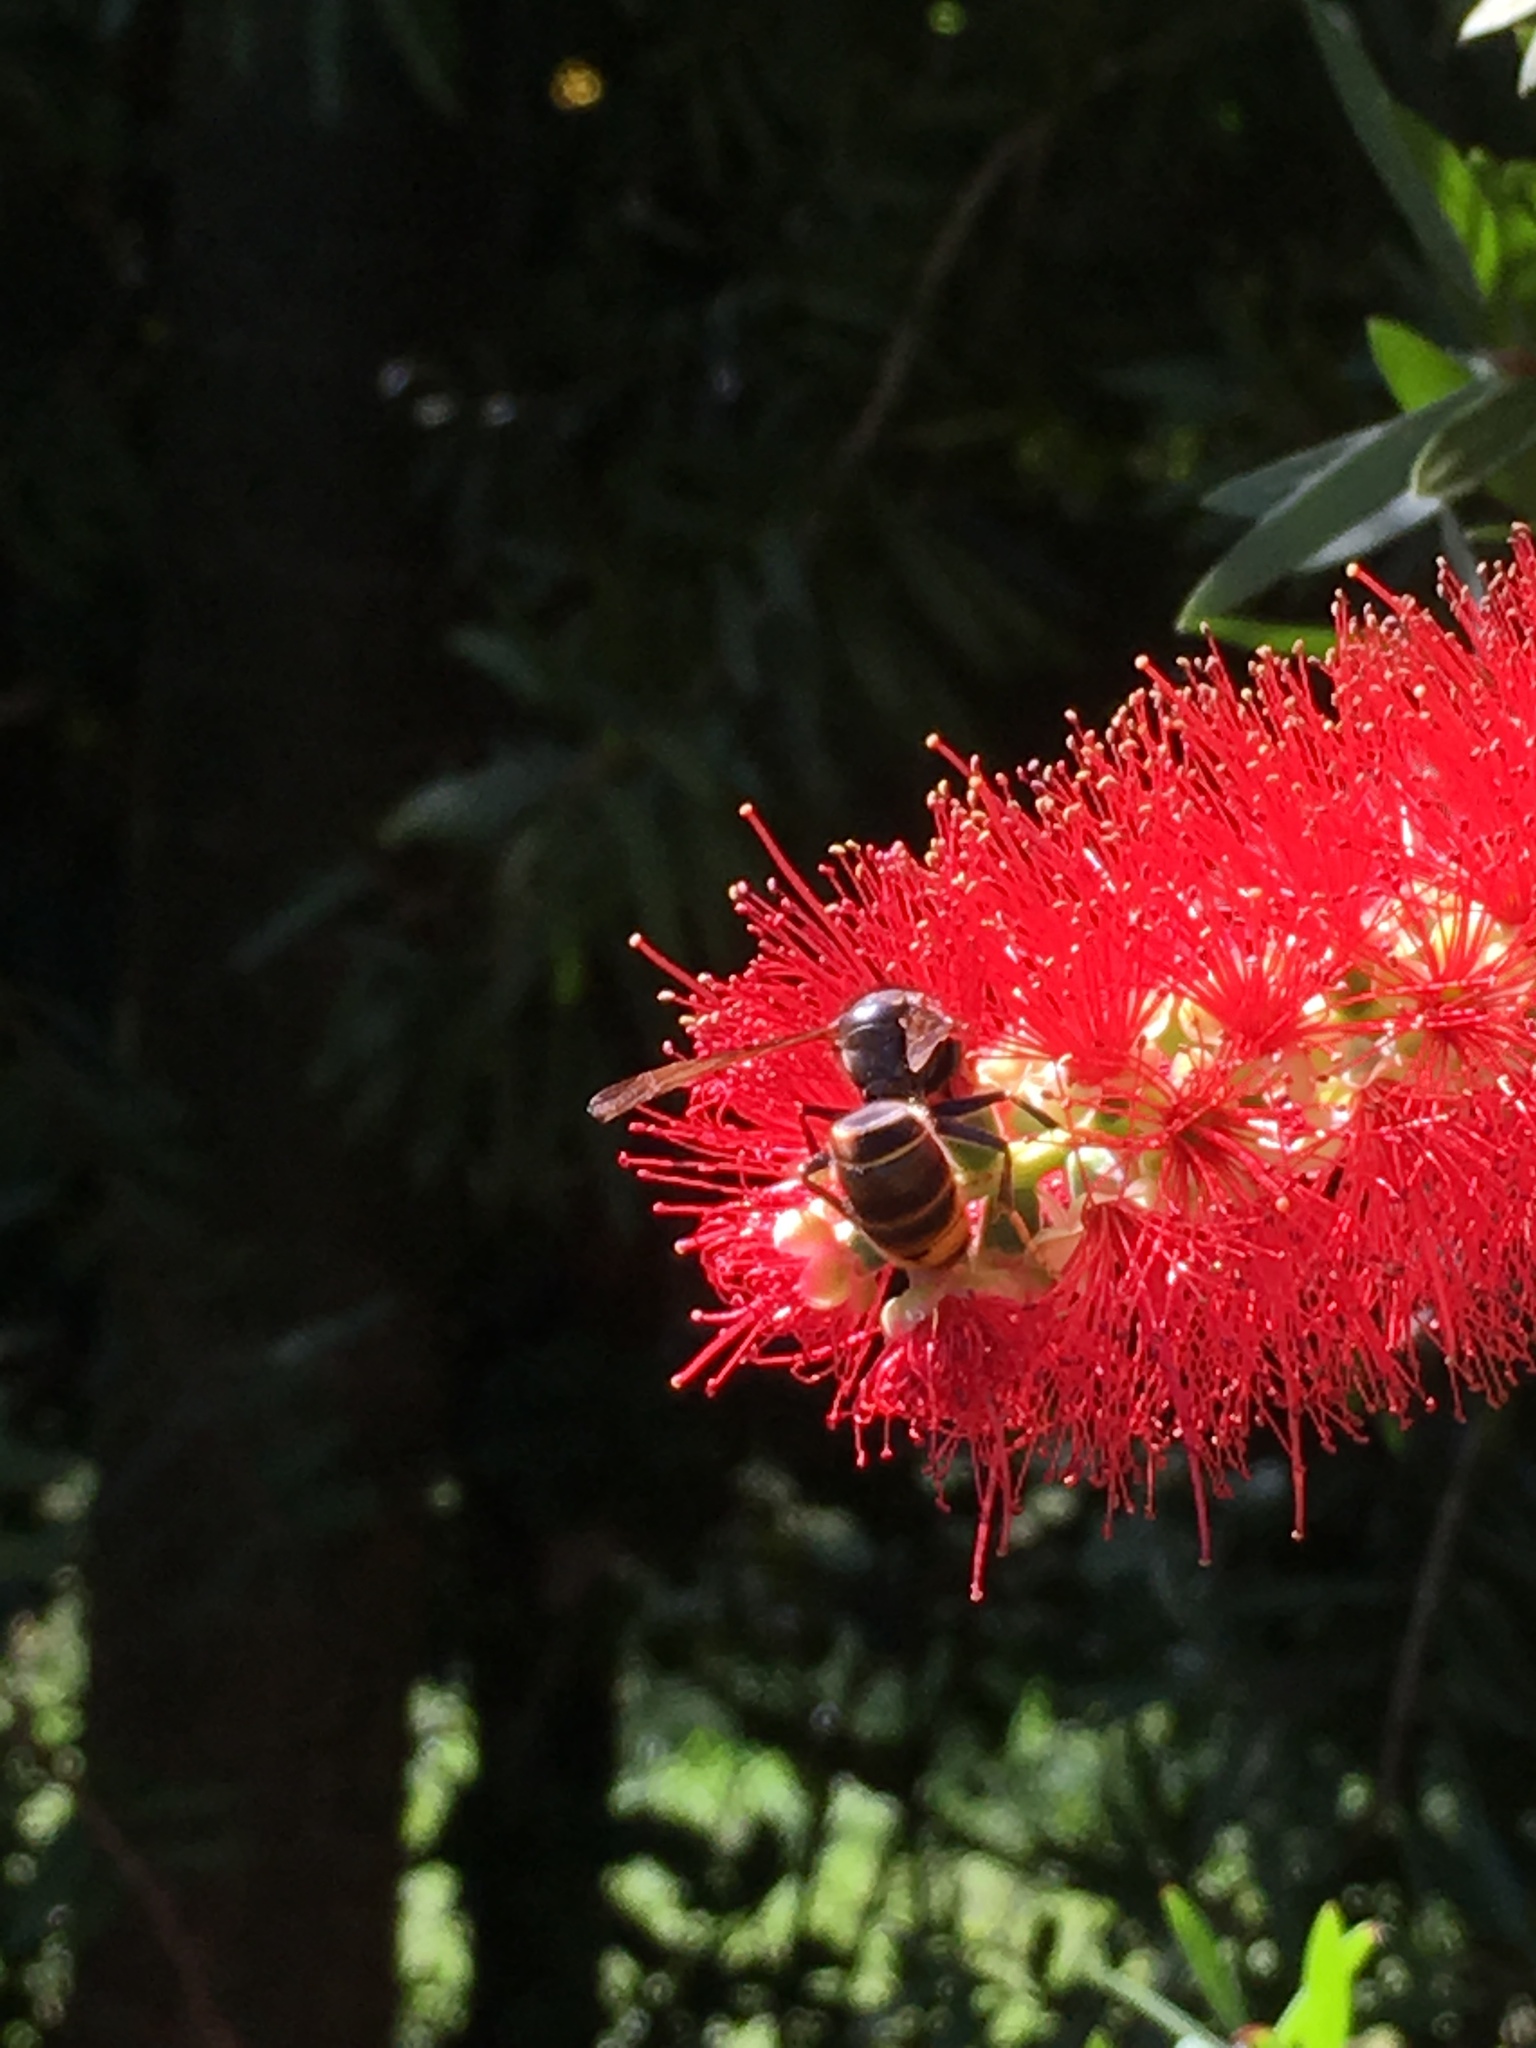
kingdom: Animalia
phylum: Arthropoda
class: Insecta
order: Hymenoptera
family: Vespidae
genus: Vespa
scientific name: Vespa velutina
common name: Asian hornet
